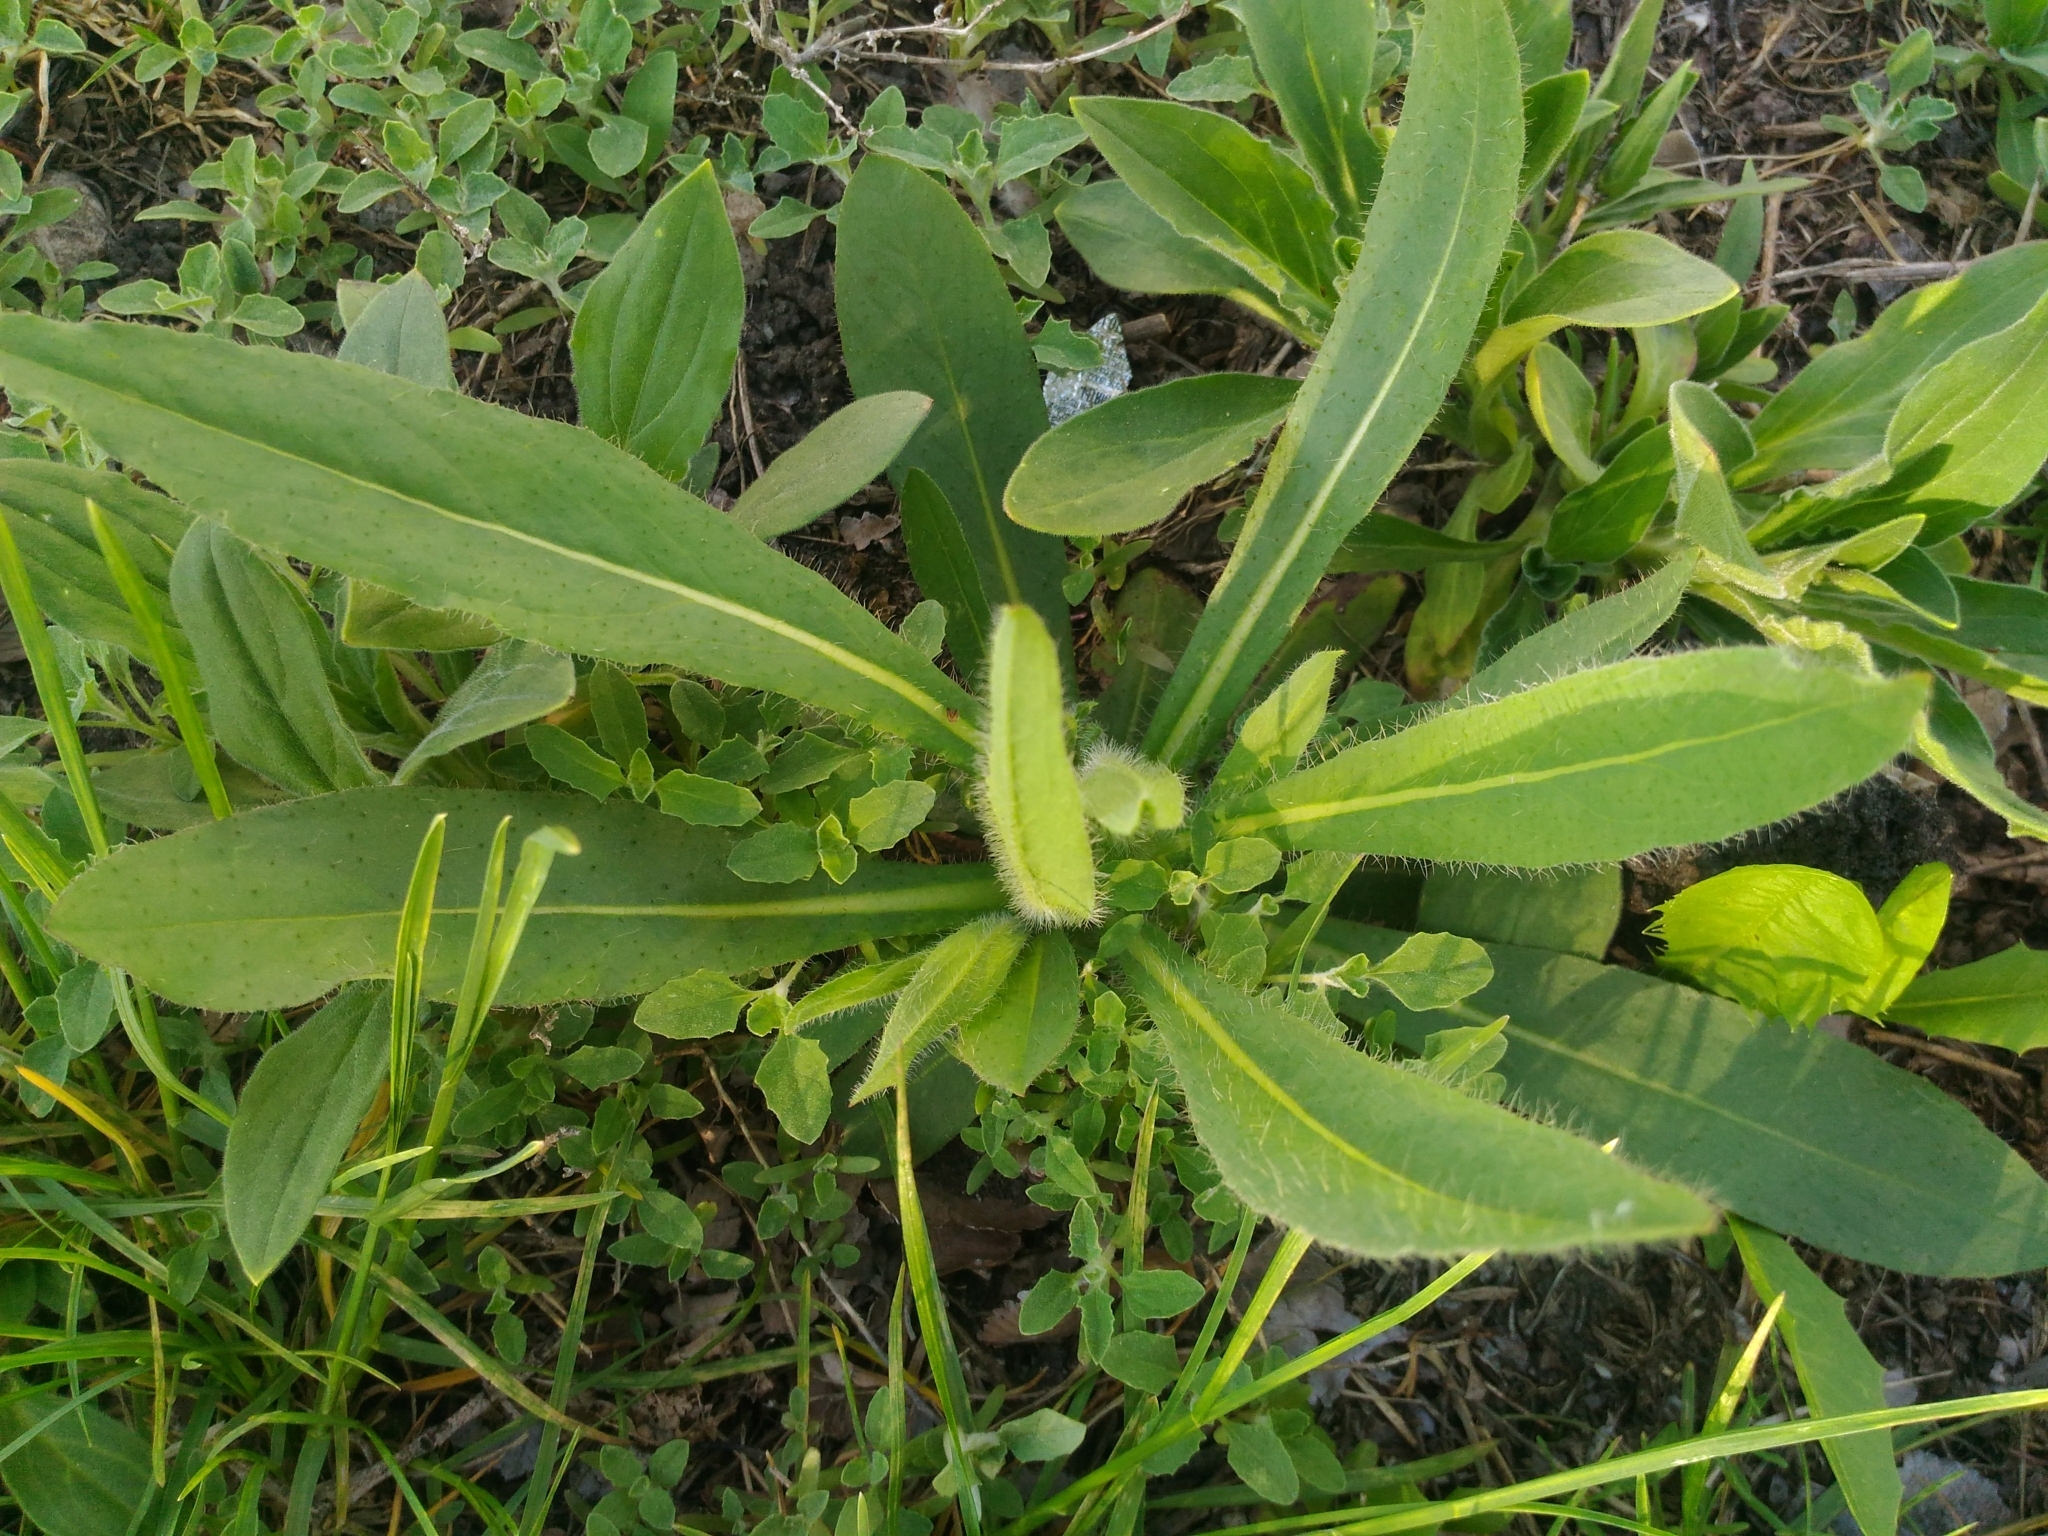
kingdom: Plantae
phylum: Tracheophyta
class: Magnoliopsida
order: Asterales
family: Asteraceae
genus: Pilosella
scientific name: Pilosella
